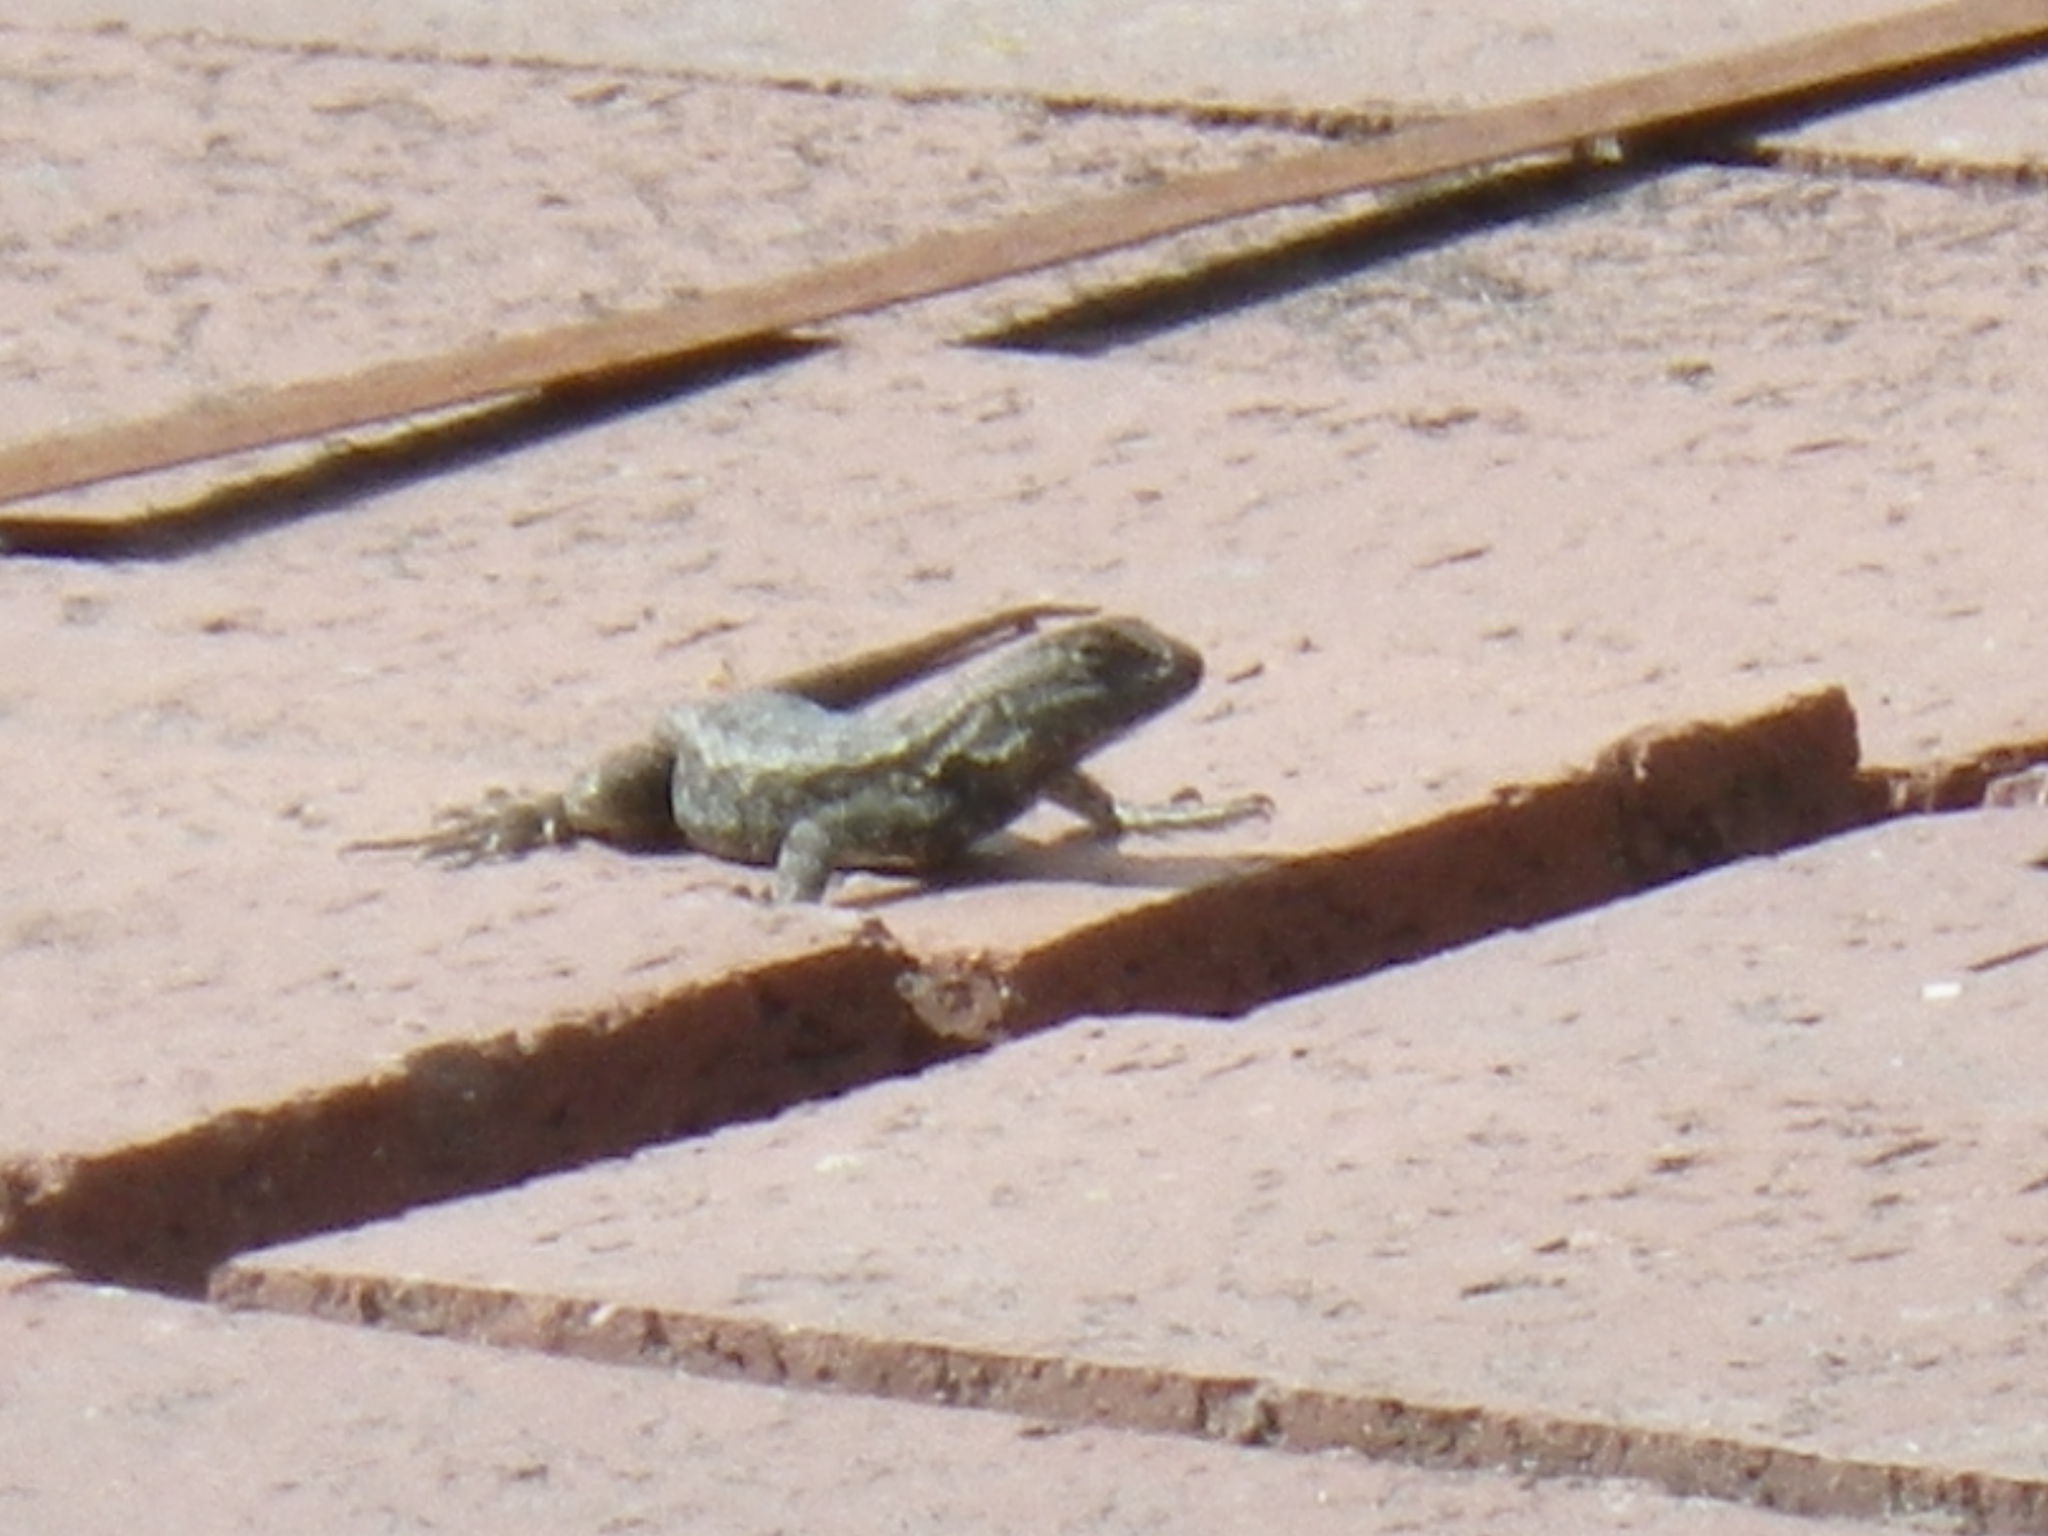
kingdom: Animalia
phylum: Chordata
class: Squamata
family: Phrynosomatidae
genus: Sceloporus
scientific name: Sceloporus occidentalis
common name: Western fence lizard
